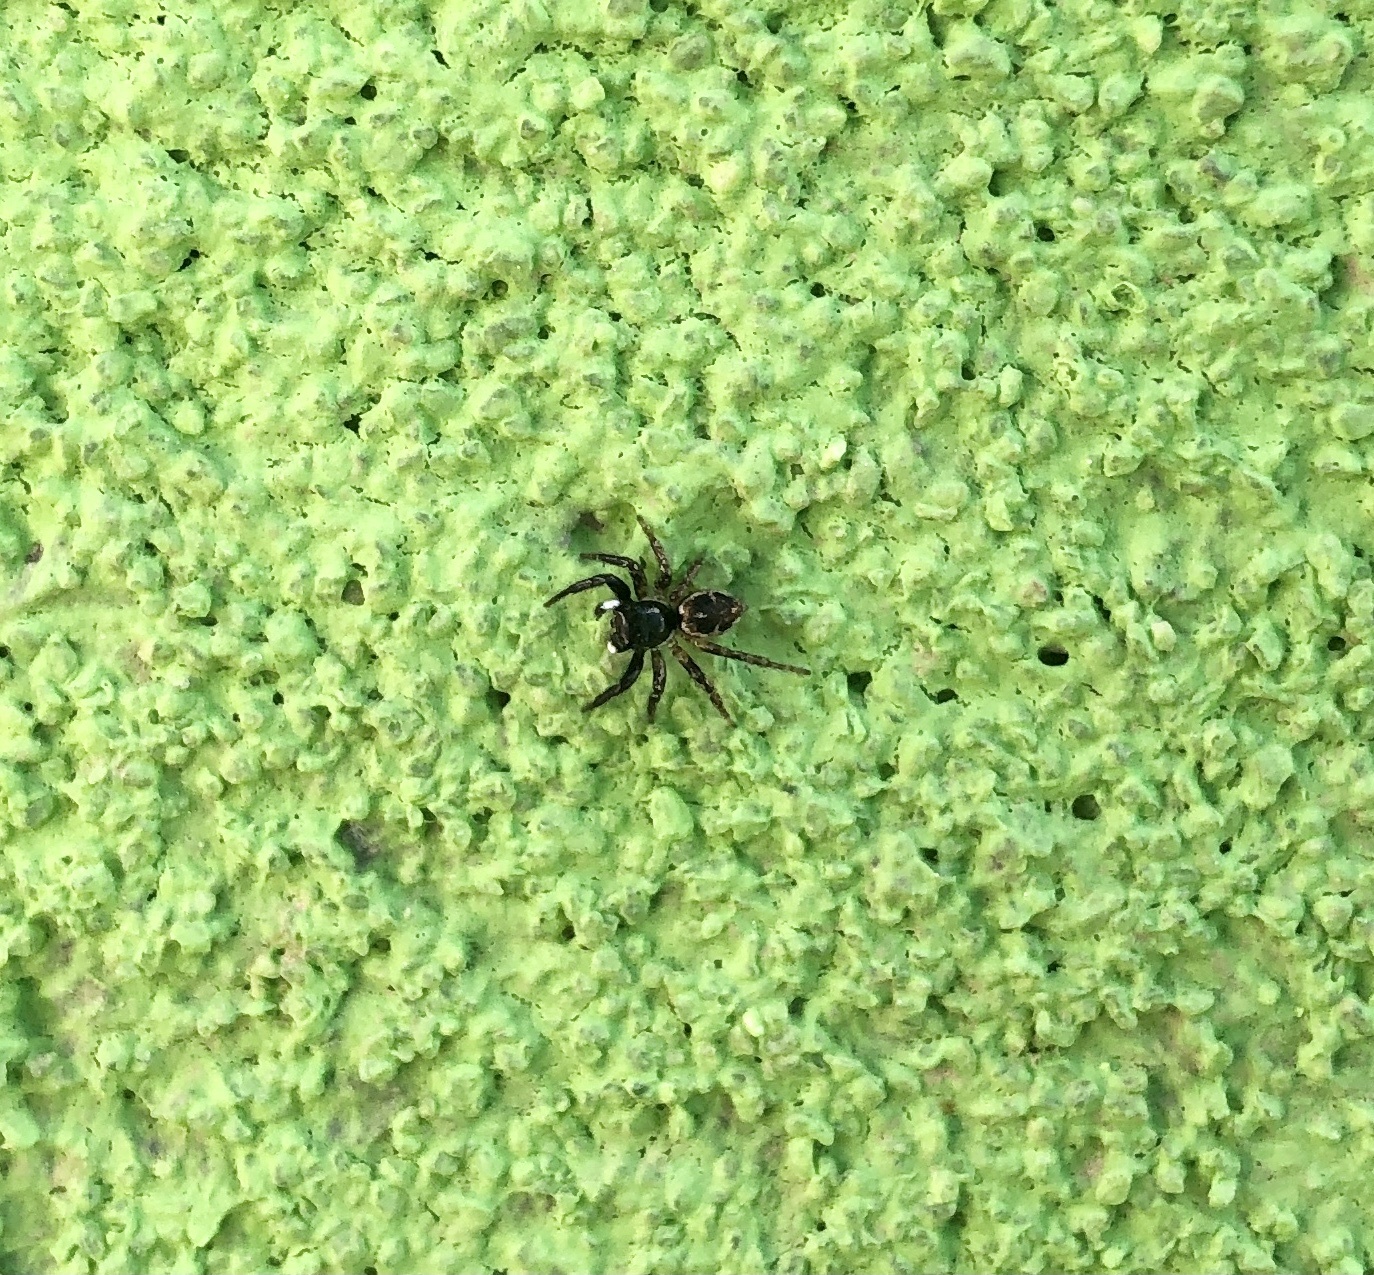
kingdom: Animalia
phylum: Arthropoda
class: Arachnida
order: Araneae
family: Salticidae
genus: Anasaitis
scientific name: Anasaitis canosa
